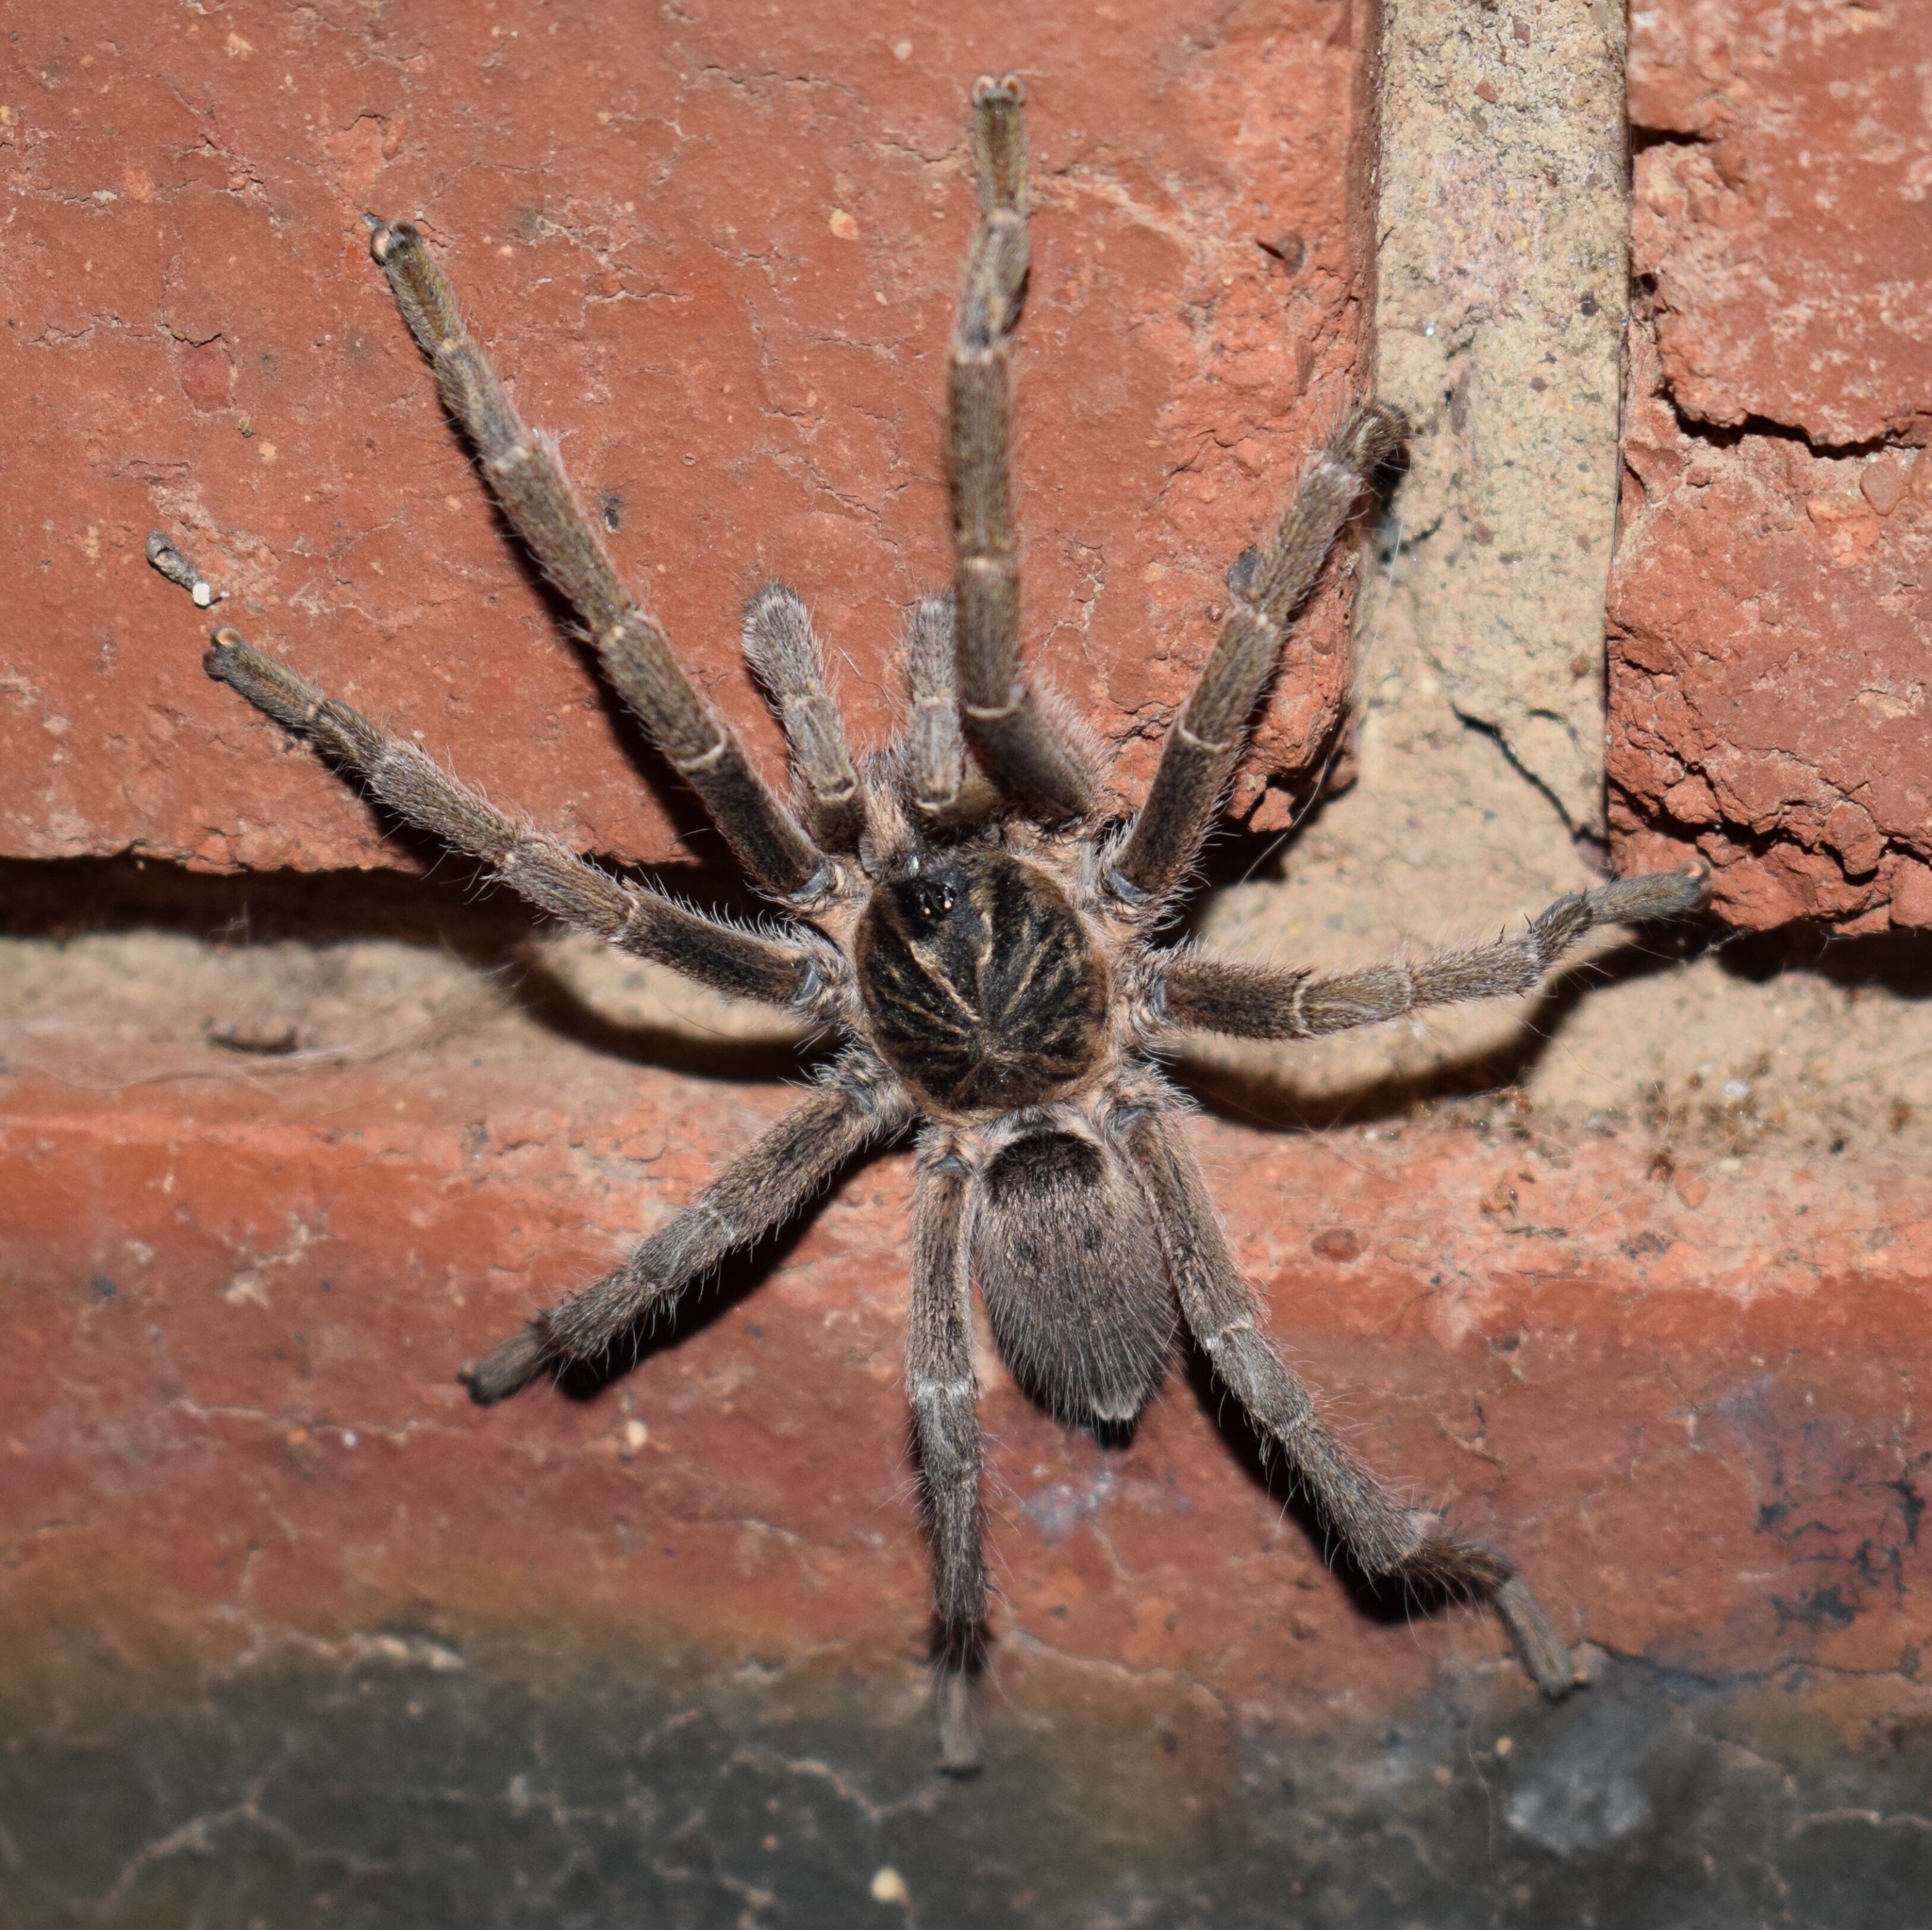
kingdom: Animalia
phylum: Arthropoda
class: Arachnida
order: Araneae
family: Theraphosidae
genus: Harpactira
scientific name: Harpactira curator
